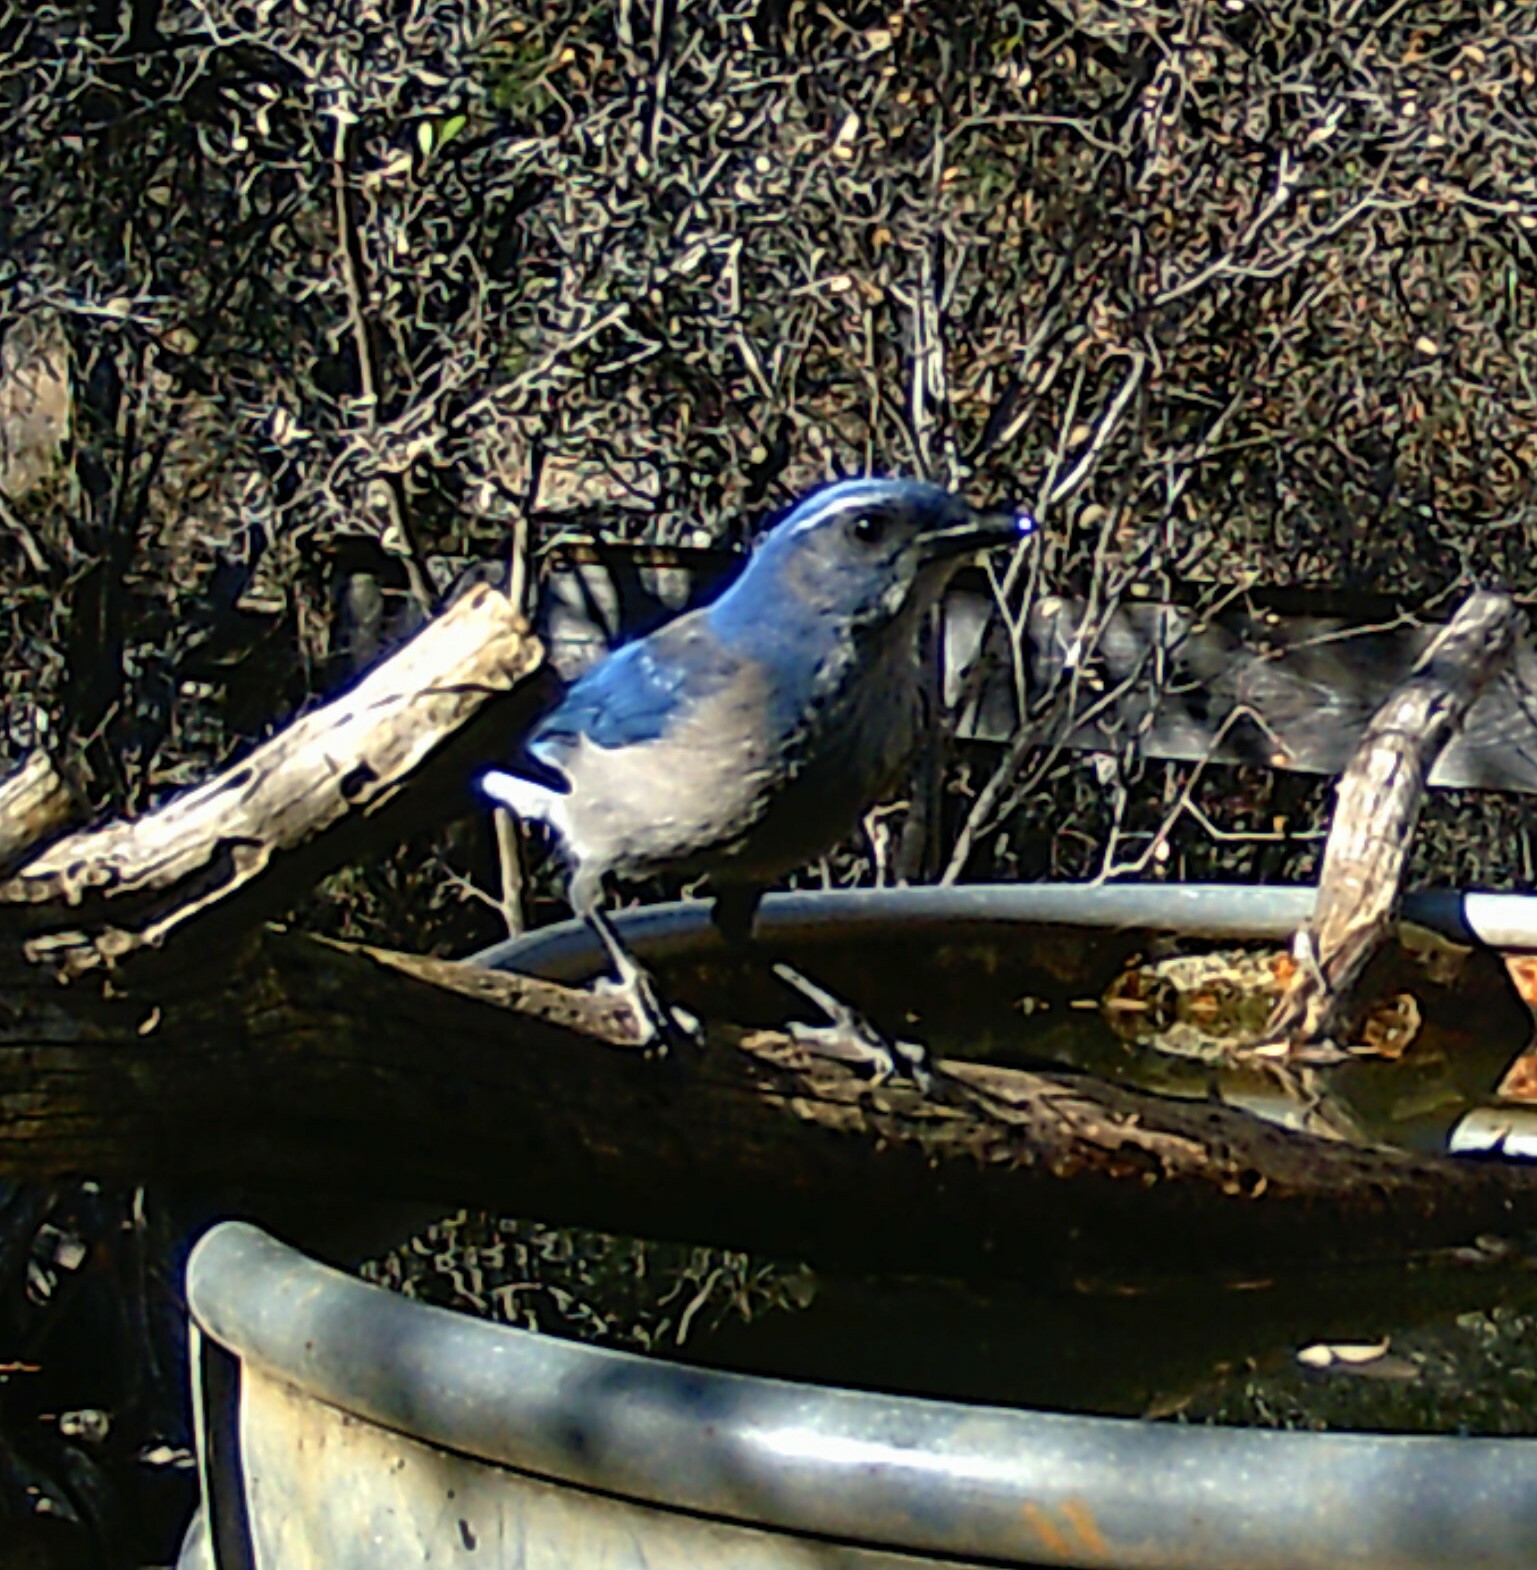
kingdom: Animalia
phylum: Chordata
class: Aves
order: Passeriformes
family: Corvidae
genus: Aphelocoma
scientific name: Aphelocoma woodhouseii
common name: Woodhouse's scrub-jay
